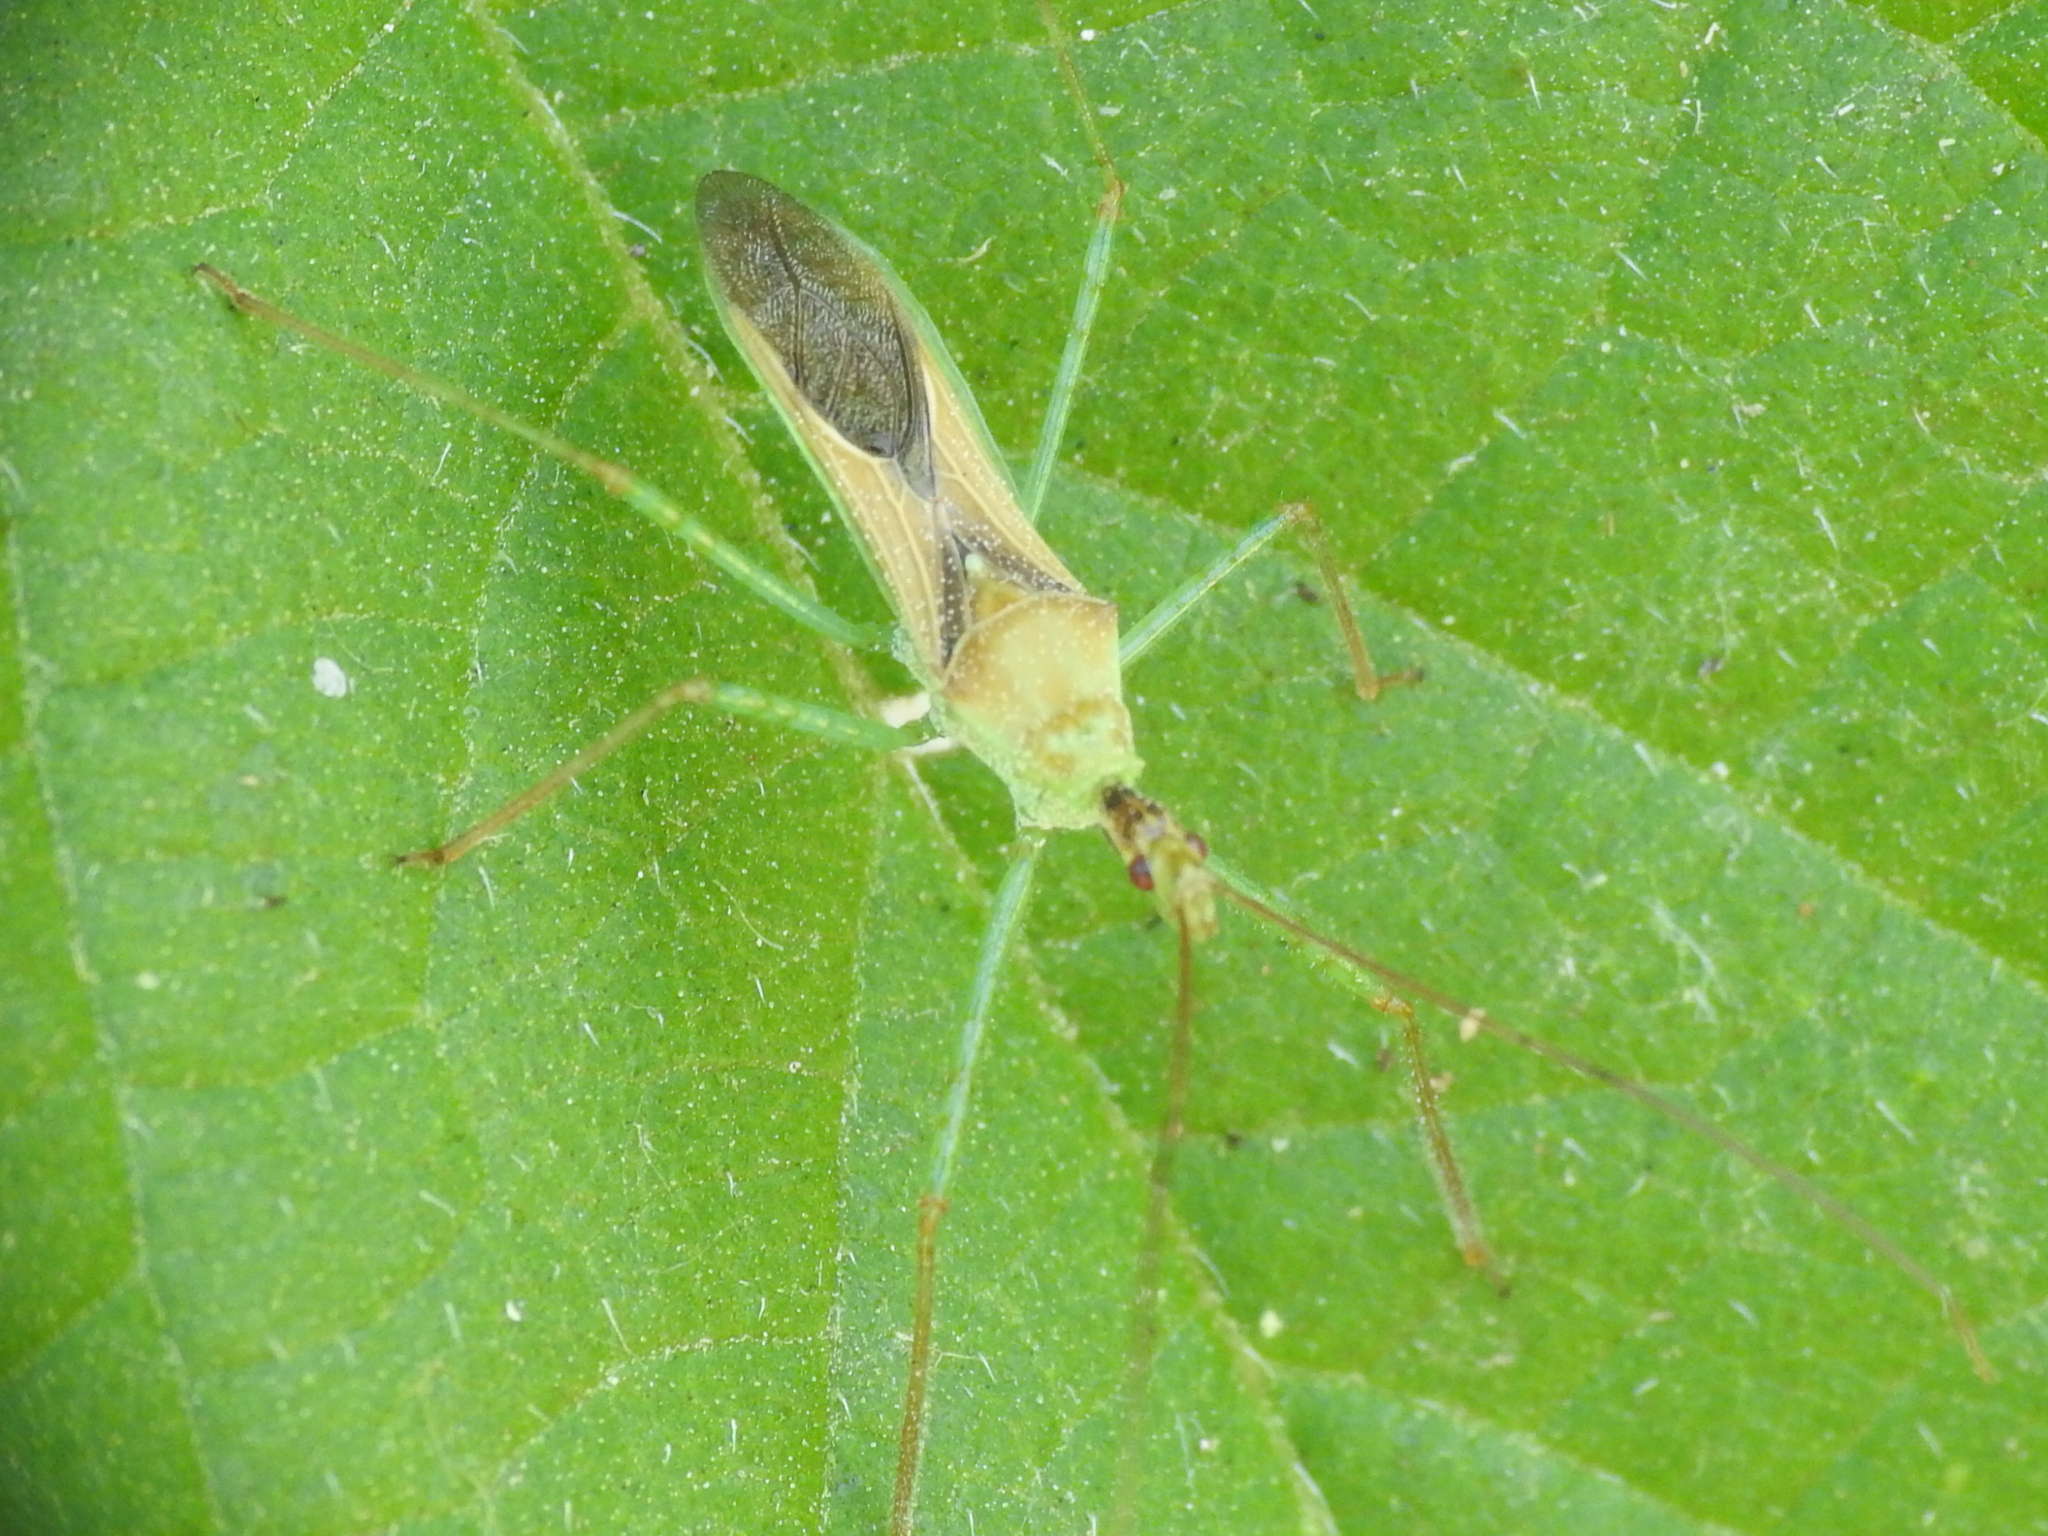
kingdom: Animalia
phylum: Arthropoda
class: Insecta
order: Hemiptera
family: Reduviidae
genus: Zelus
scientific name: Zelus renardii
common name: Assassin bug
